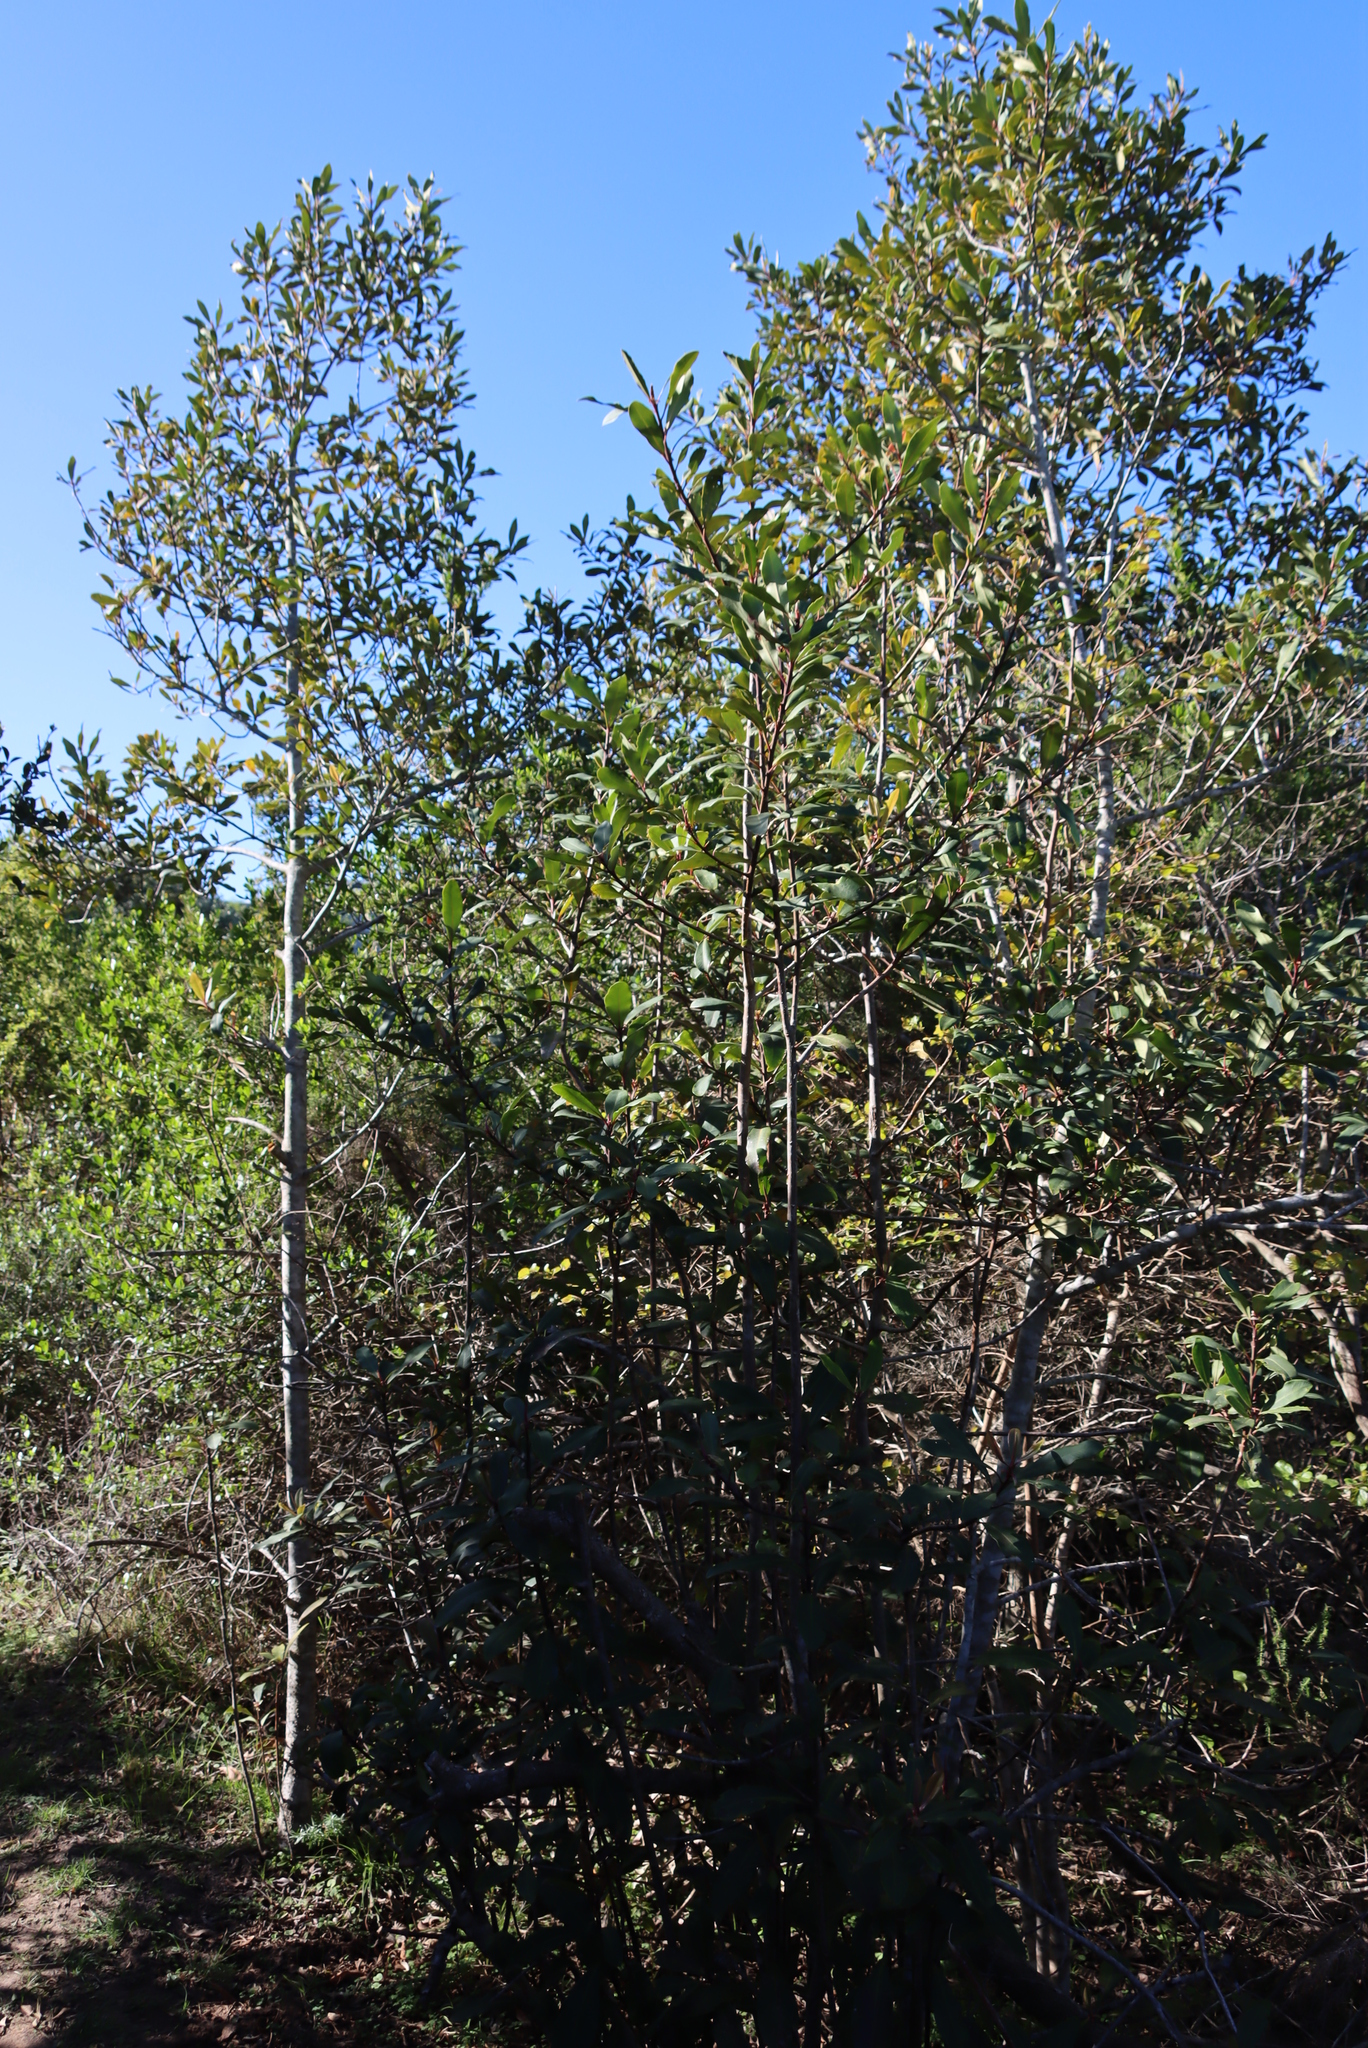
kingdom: Plantae
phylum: Tracheophyta
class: Magnoliopsida
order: Ericales
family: Primulaceae
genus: Myrsine
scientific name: Myrsine melanophloeos
